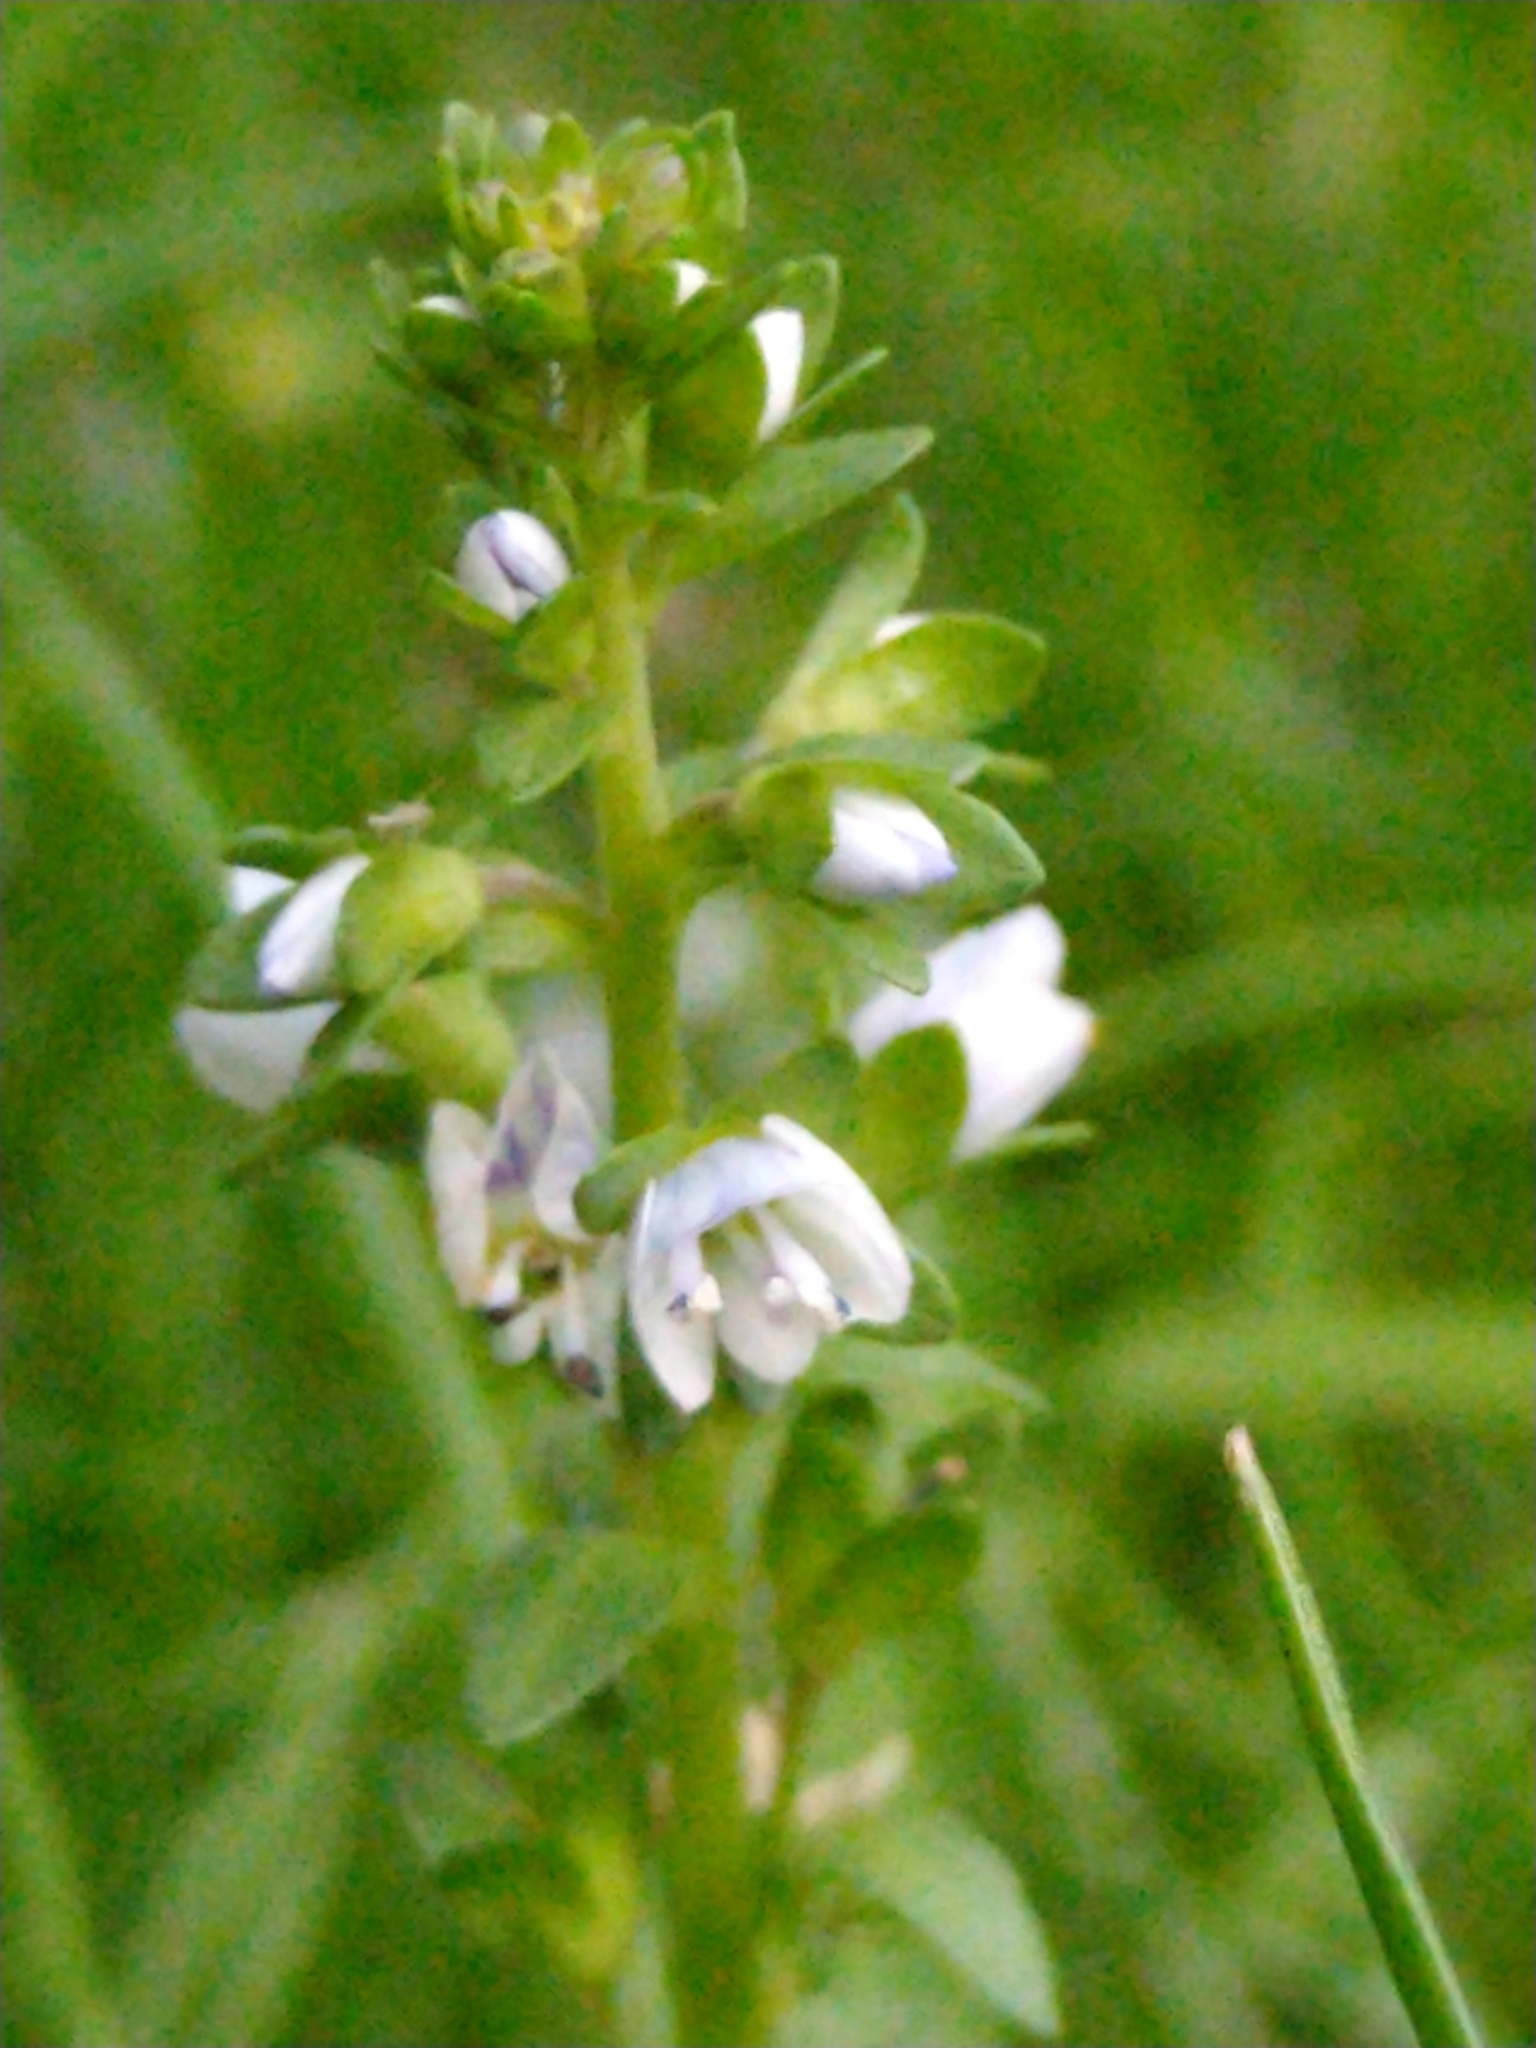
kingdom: Plantae
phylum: Tracheophyta
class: Magnoliopsida
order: Lamiales
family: Plantaginaceae
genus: Veronica
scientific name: Veronica serpyllifolia
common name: Thyme-leaved speedwell
